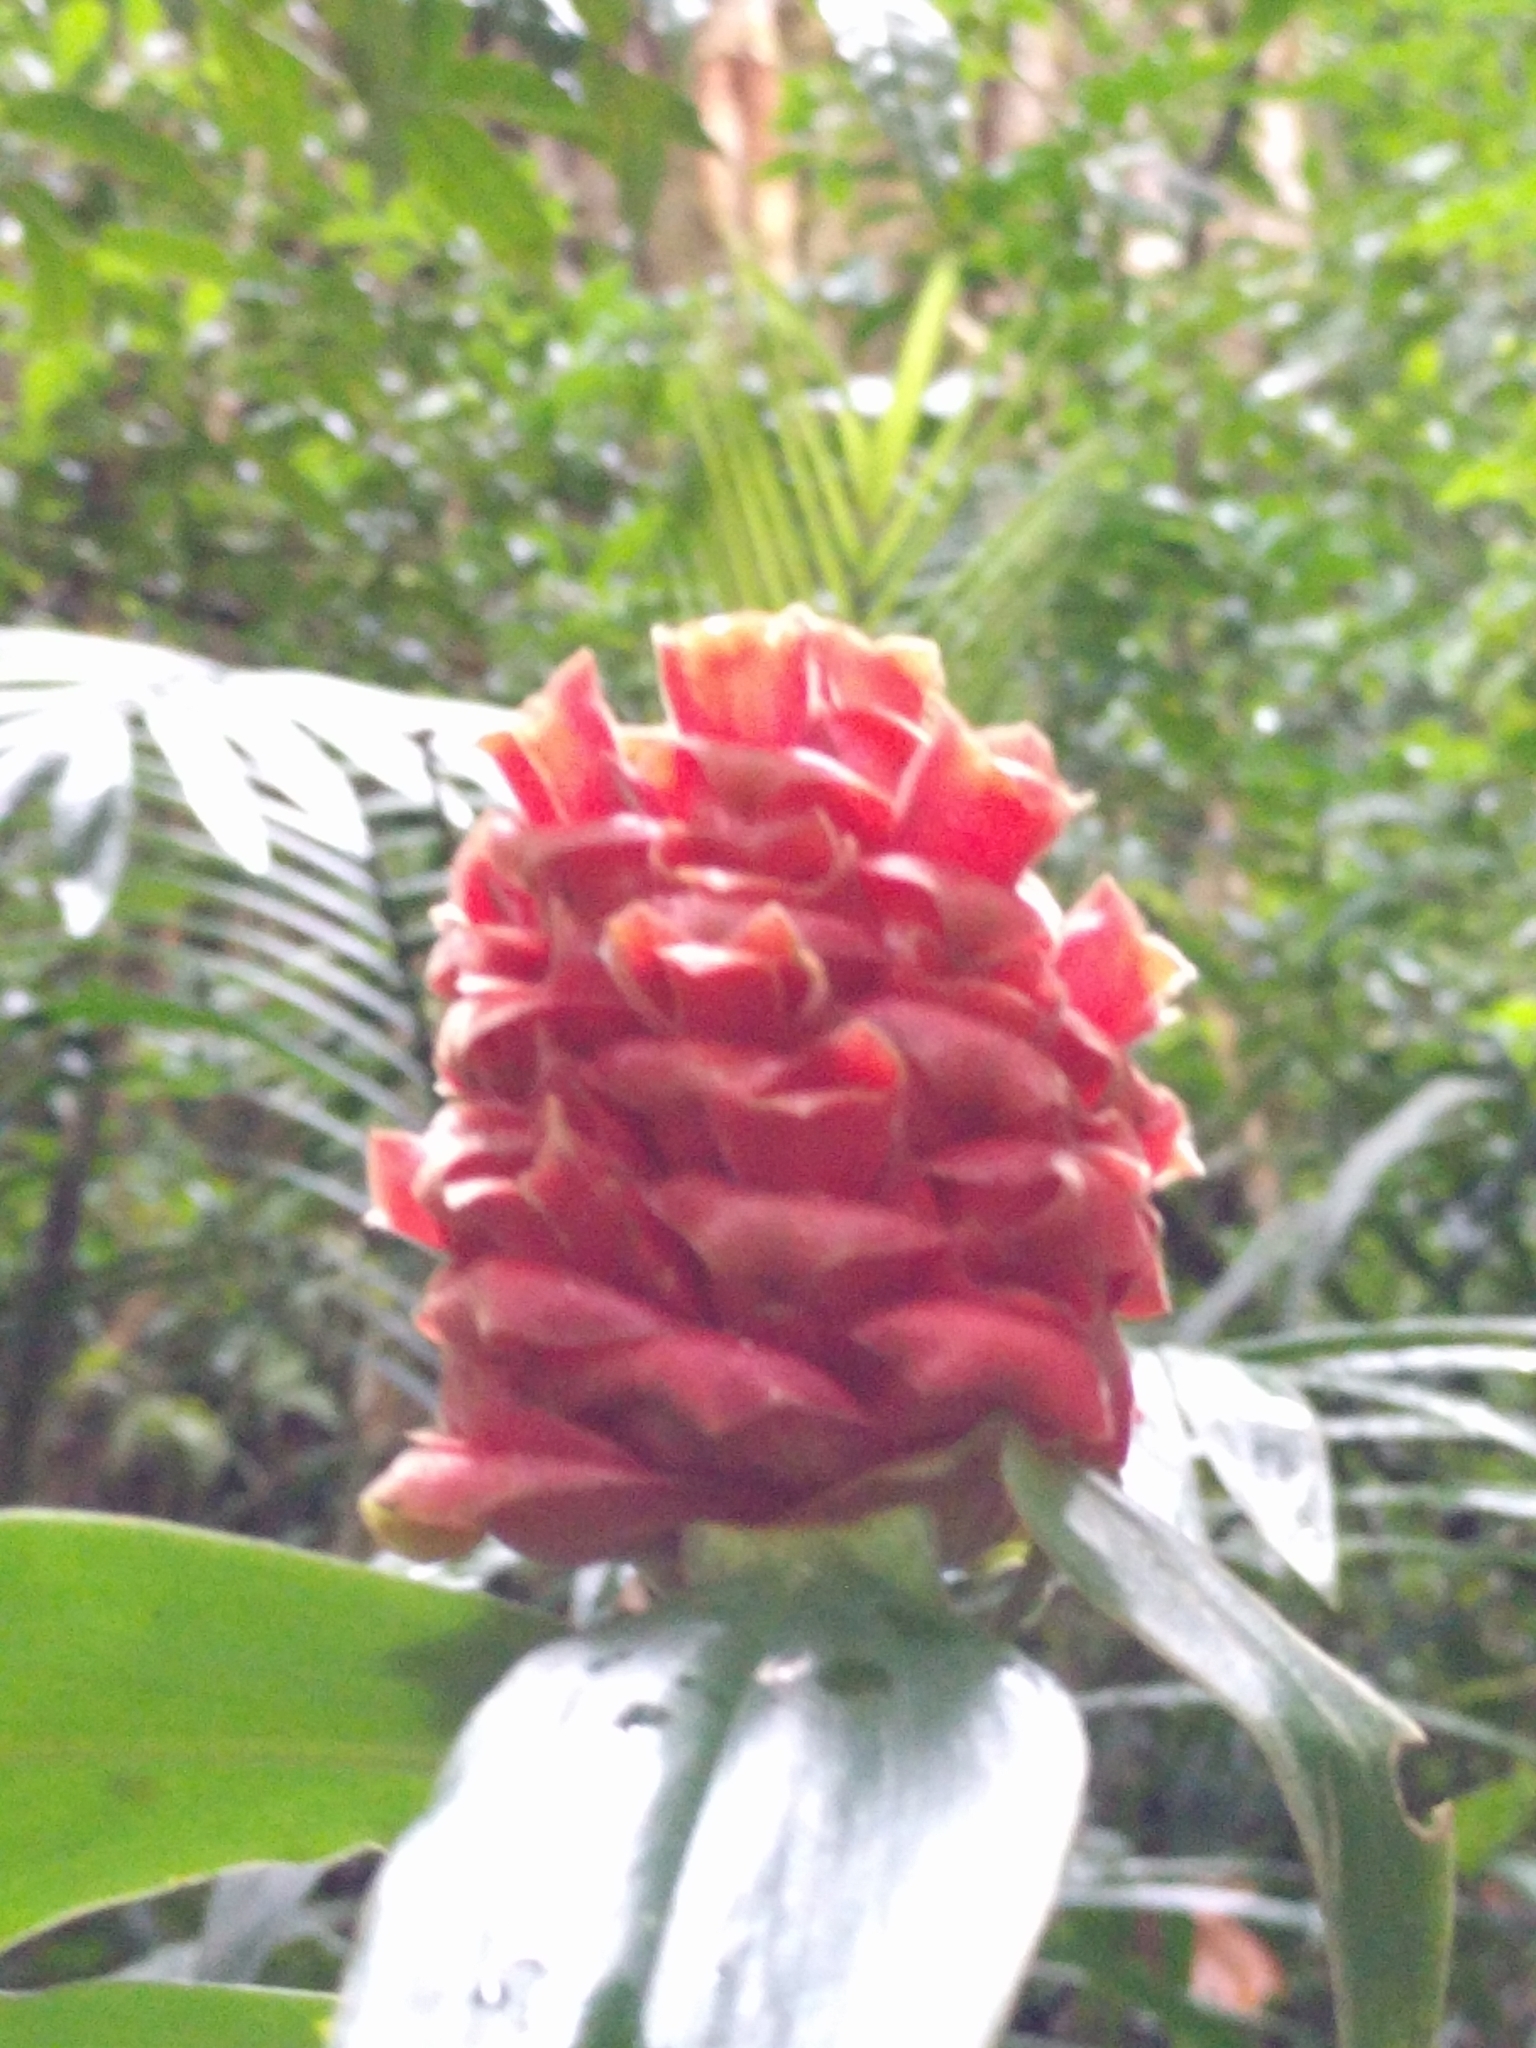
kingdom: Plantae
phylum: Tracheophyta
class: Liliopsida
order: Zingiberales
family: Costaceae
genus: Costus
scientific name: Costus montanus
